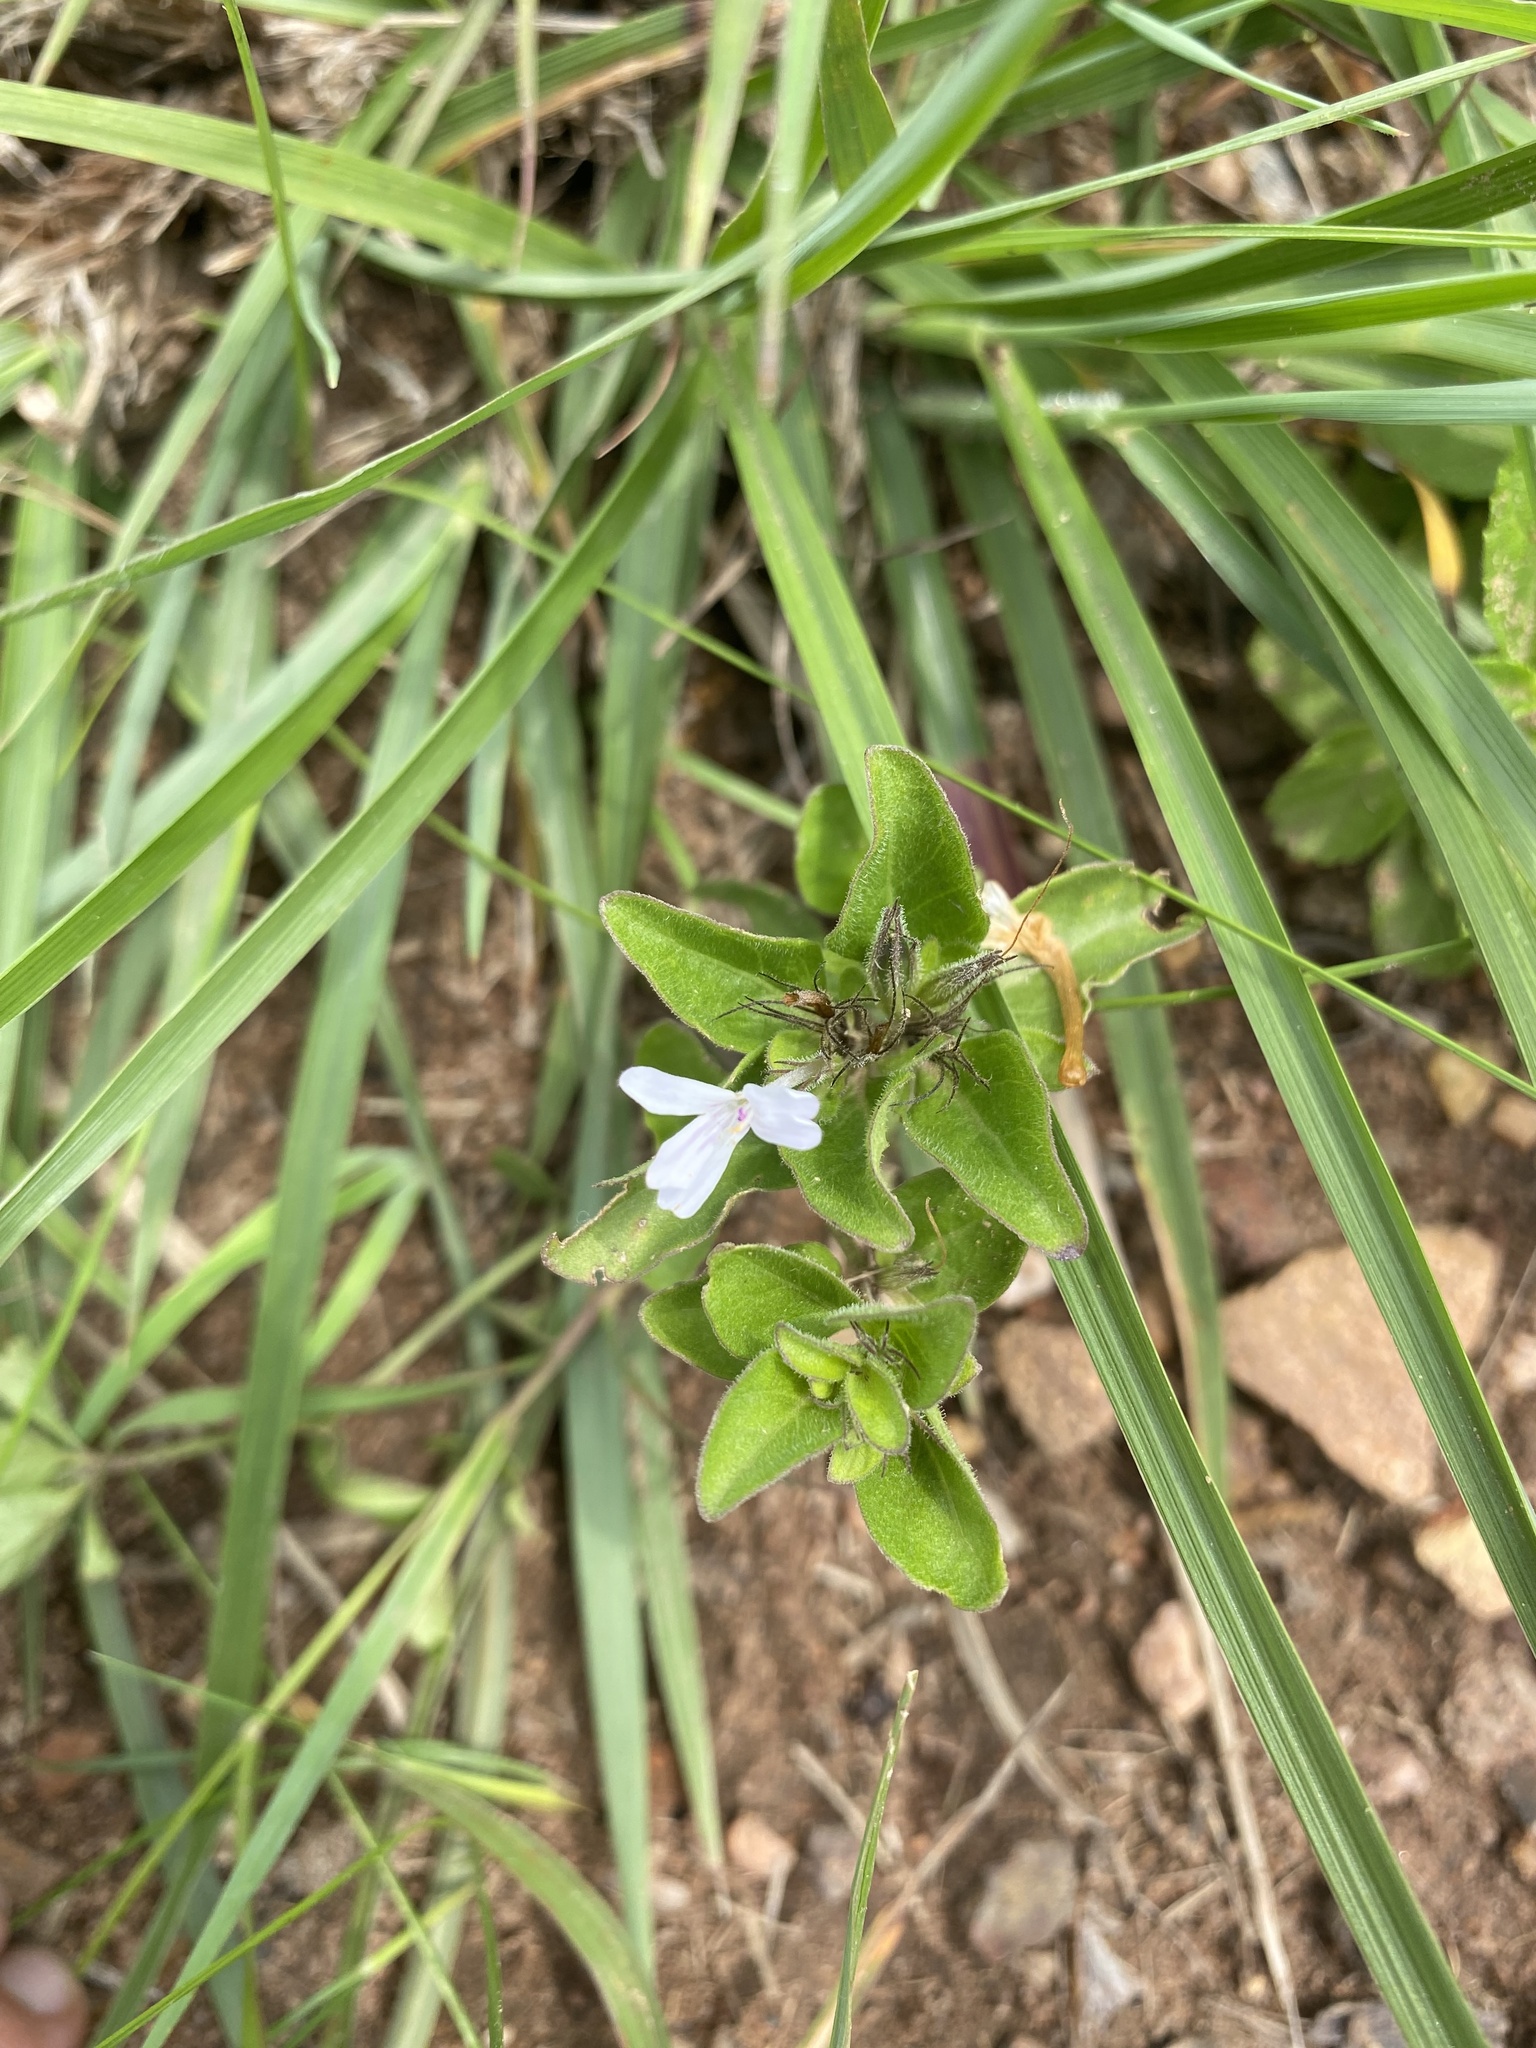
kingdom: Plantae
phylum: Tracheophyta
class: Magnoliopsida
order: Lamiales
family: Acanthaceae
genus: Dyschoriste
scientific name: Dyschoriste setigera
